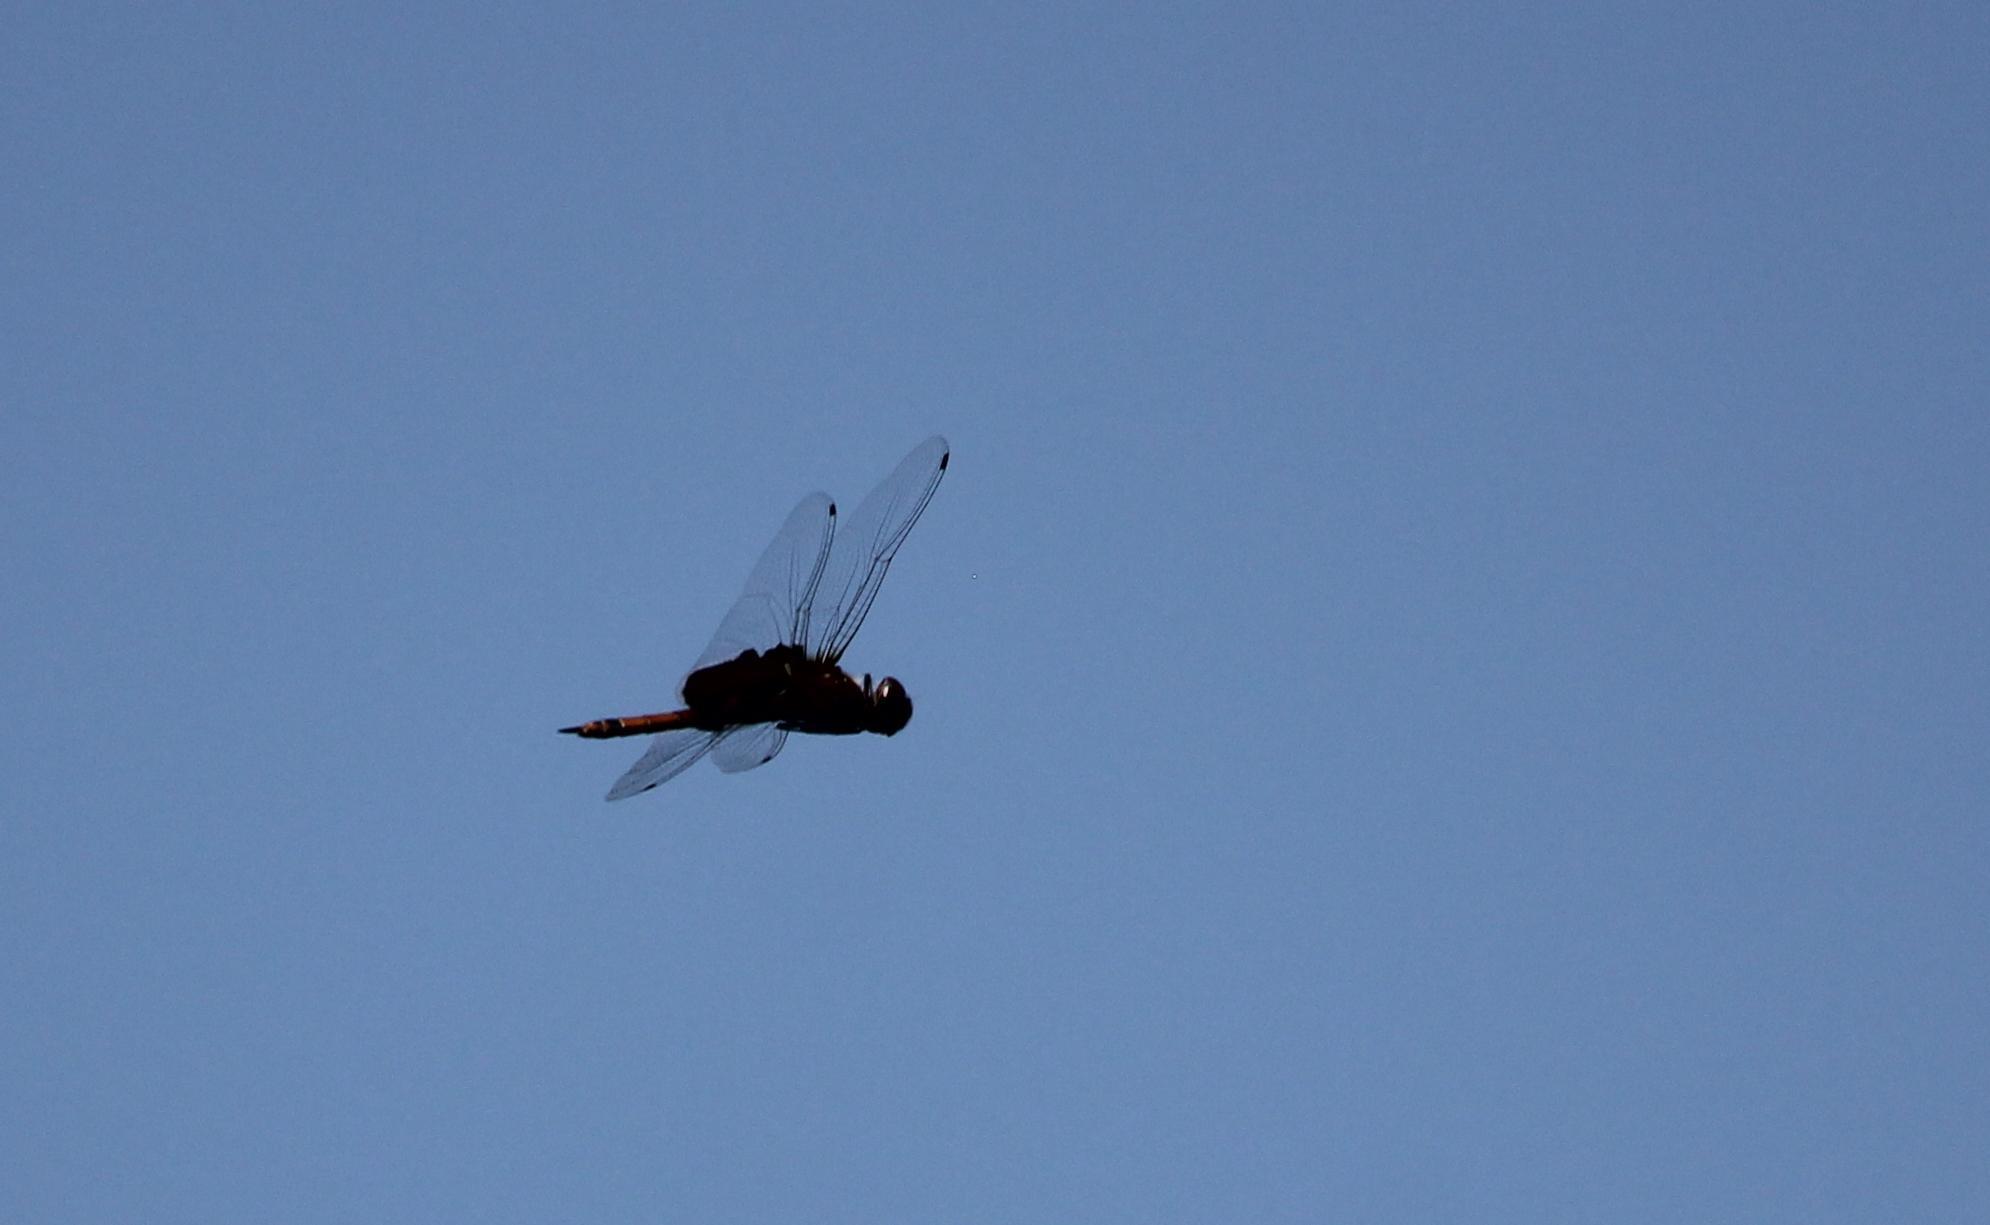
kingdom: Animalia
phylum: Arthropoda
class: Insecta
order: Odonata
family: Libellulidae
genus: Tramea
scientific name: Tramea carolina
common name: Carolina saddlebags
